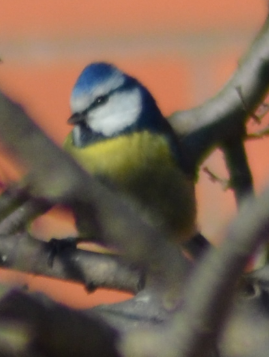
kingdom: Animalia
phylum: Chordata
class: Aves
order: Passeriformes
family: Paridae
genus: Cyanistes
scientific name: Cyanistes caeruleus
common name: Eurasian blue tit
